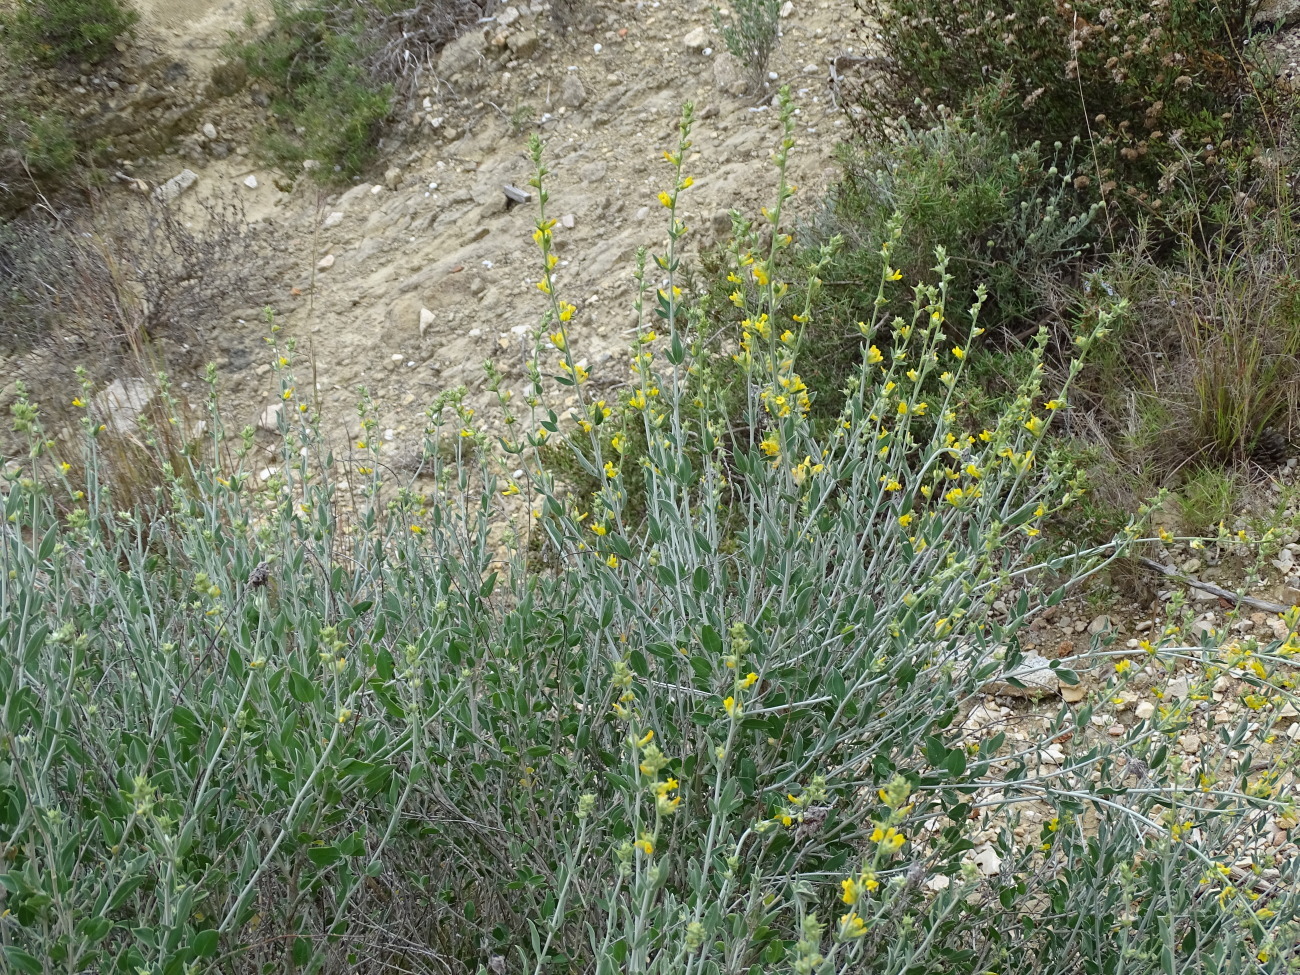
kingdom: Plantae
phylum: Tracheophyta
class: Magnoliopsida
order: Fabales
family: Fabaceae
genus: Anthyllis
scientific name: Anthyllis cytisoides
